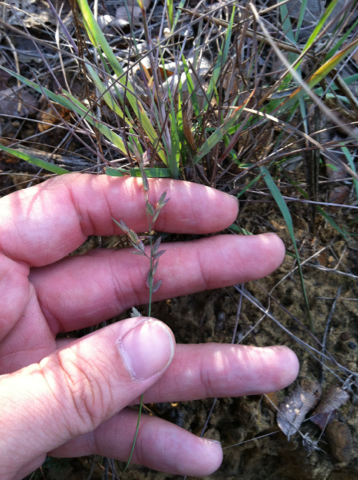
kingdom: Plantae
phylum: Tracheophyta
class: Liliopsida
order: Poales
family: Poaceae
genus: Eragrostis
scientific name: Eragrostis secundiflora
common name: Red love grass
